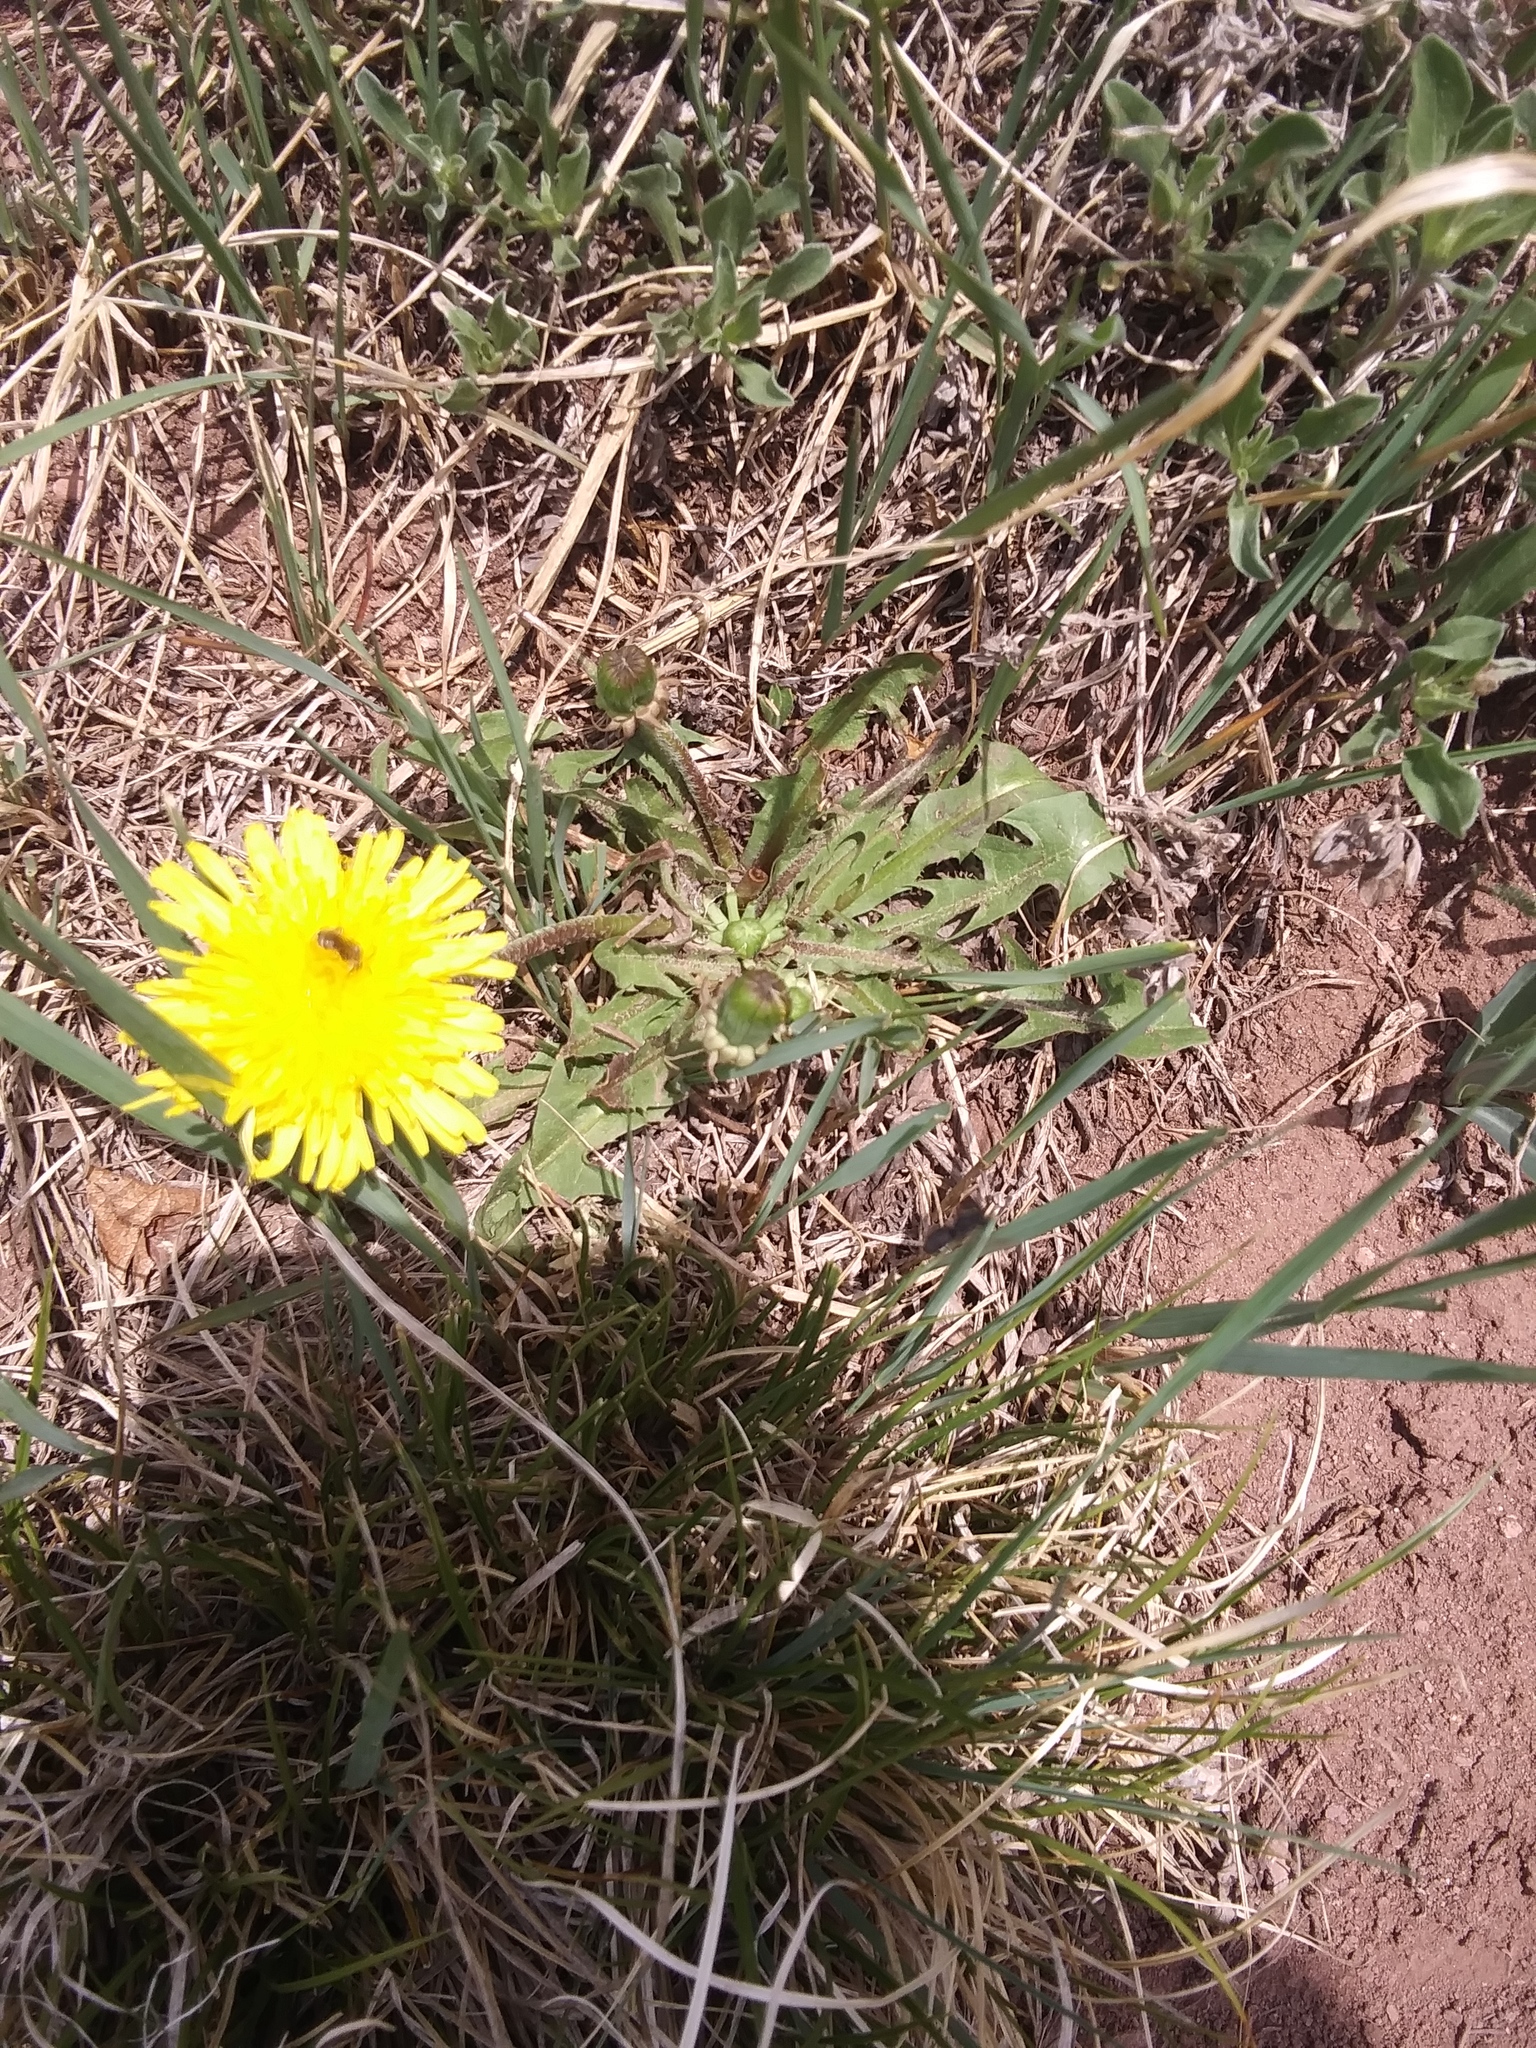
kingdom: Plantae
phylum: Tracheophyta
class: Magnoliopsida
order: Asterales
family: Asteraceae
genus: Taraxacum
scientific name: Taraxacum officinale
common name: Common dandelion
